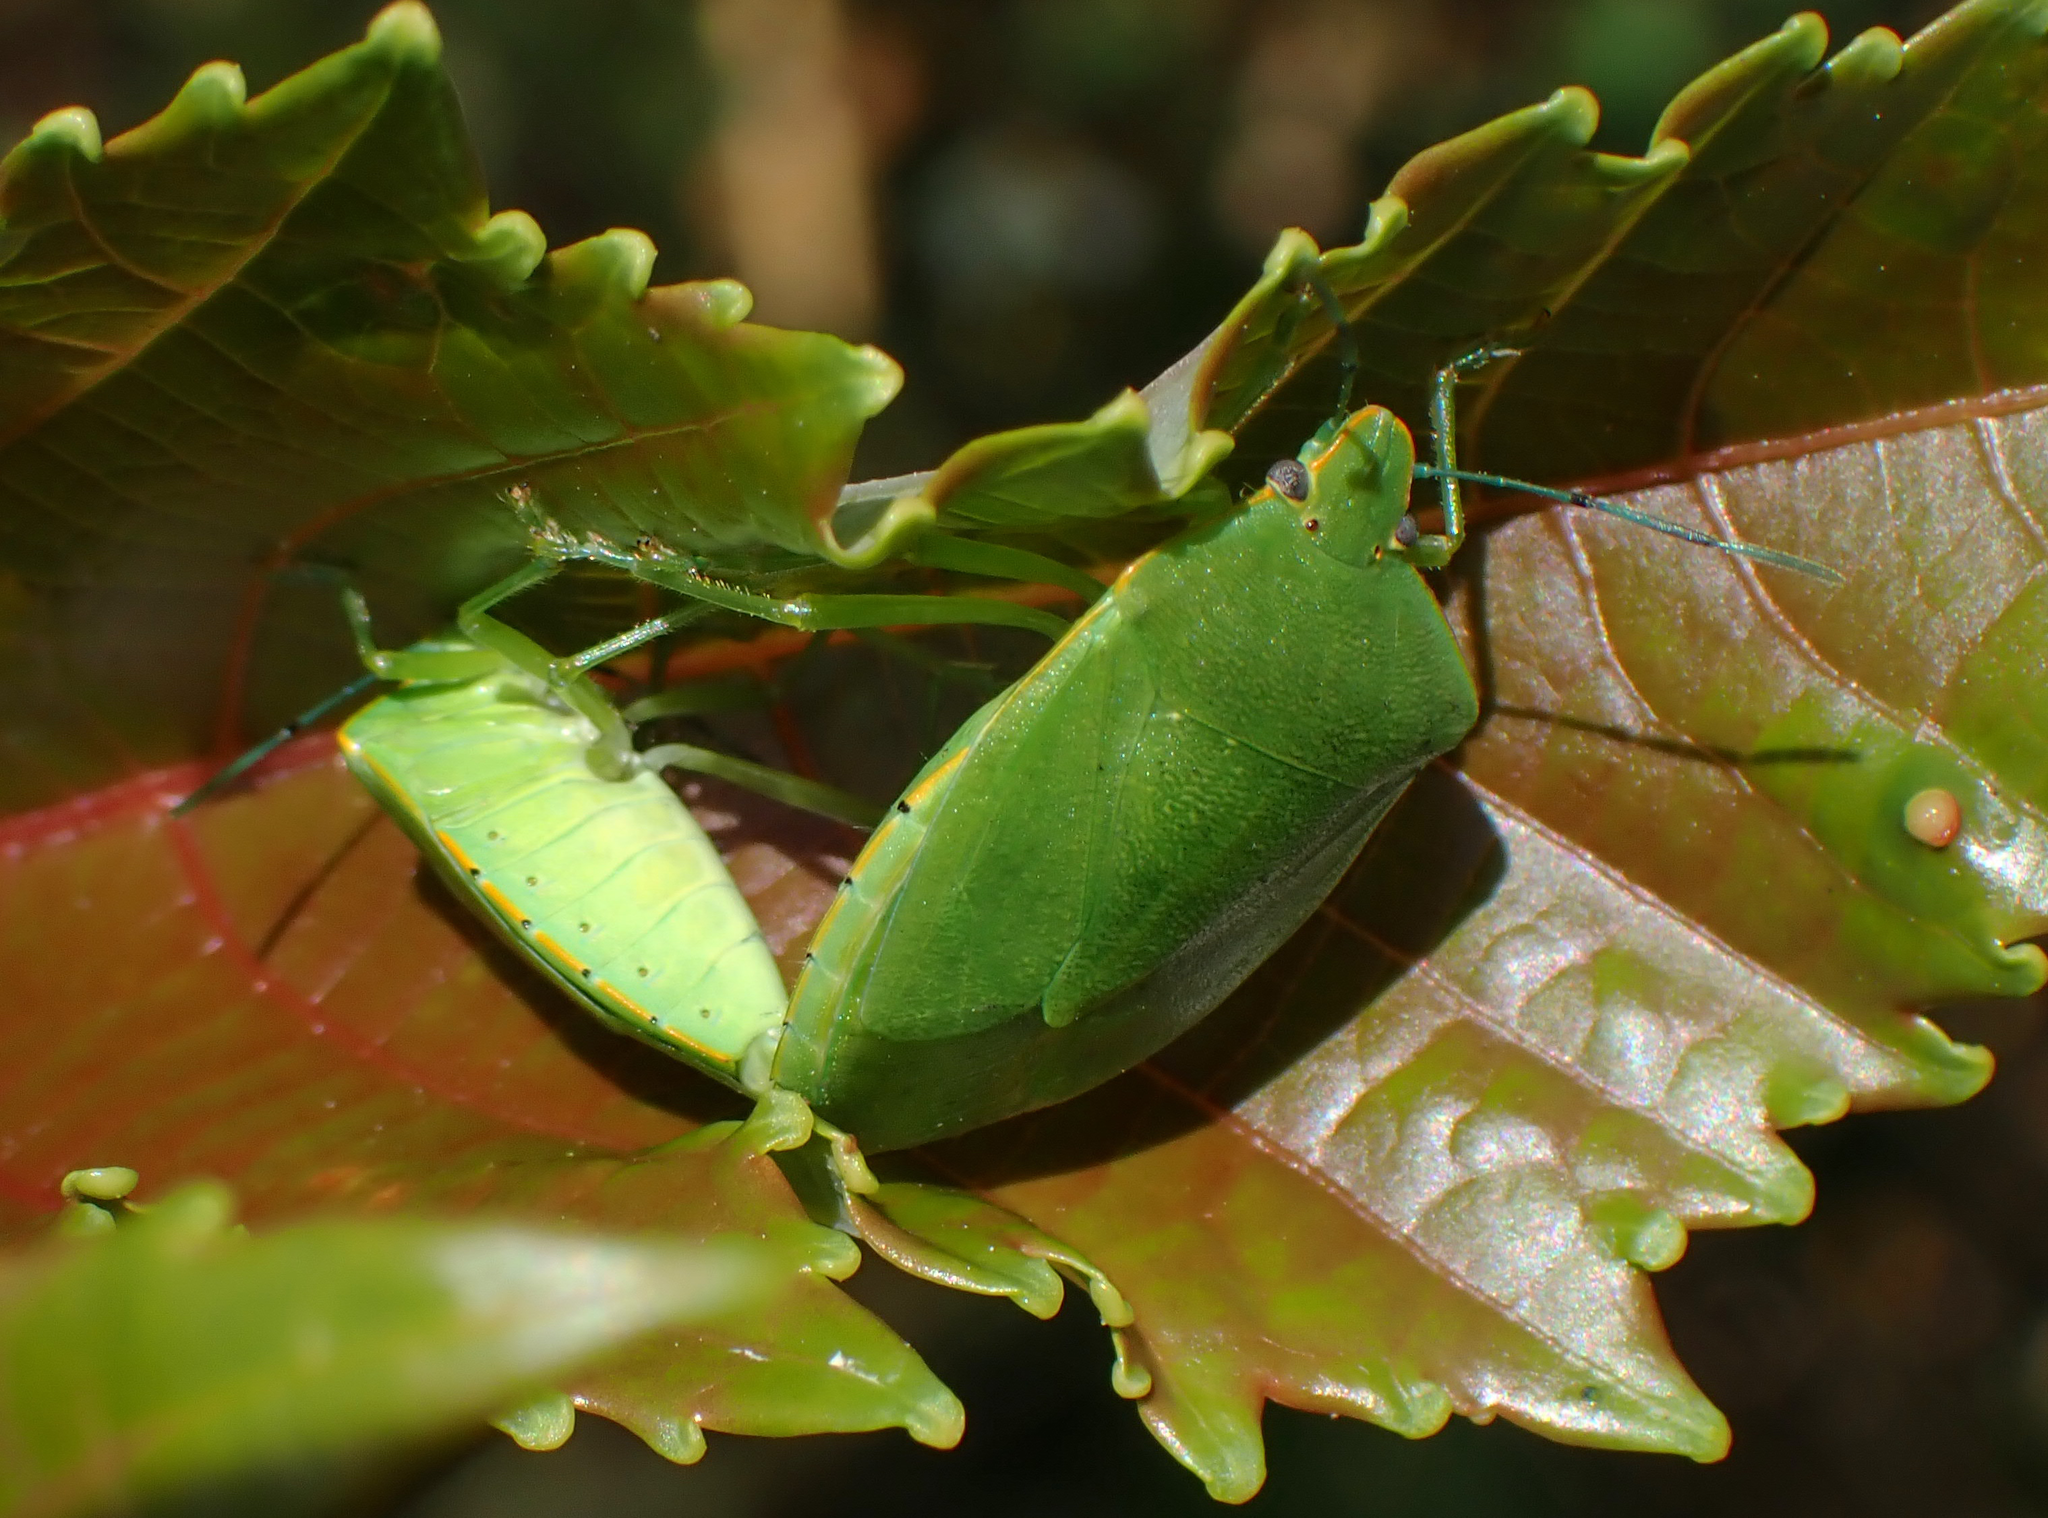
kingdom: Animalia
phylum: Arthropoda
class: Insecta
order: Hemiptera
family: Pentatomidae
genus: Acrosternum
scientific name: Acrosternum marginatum
